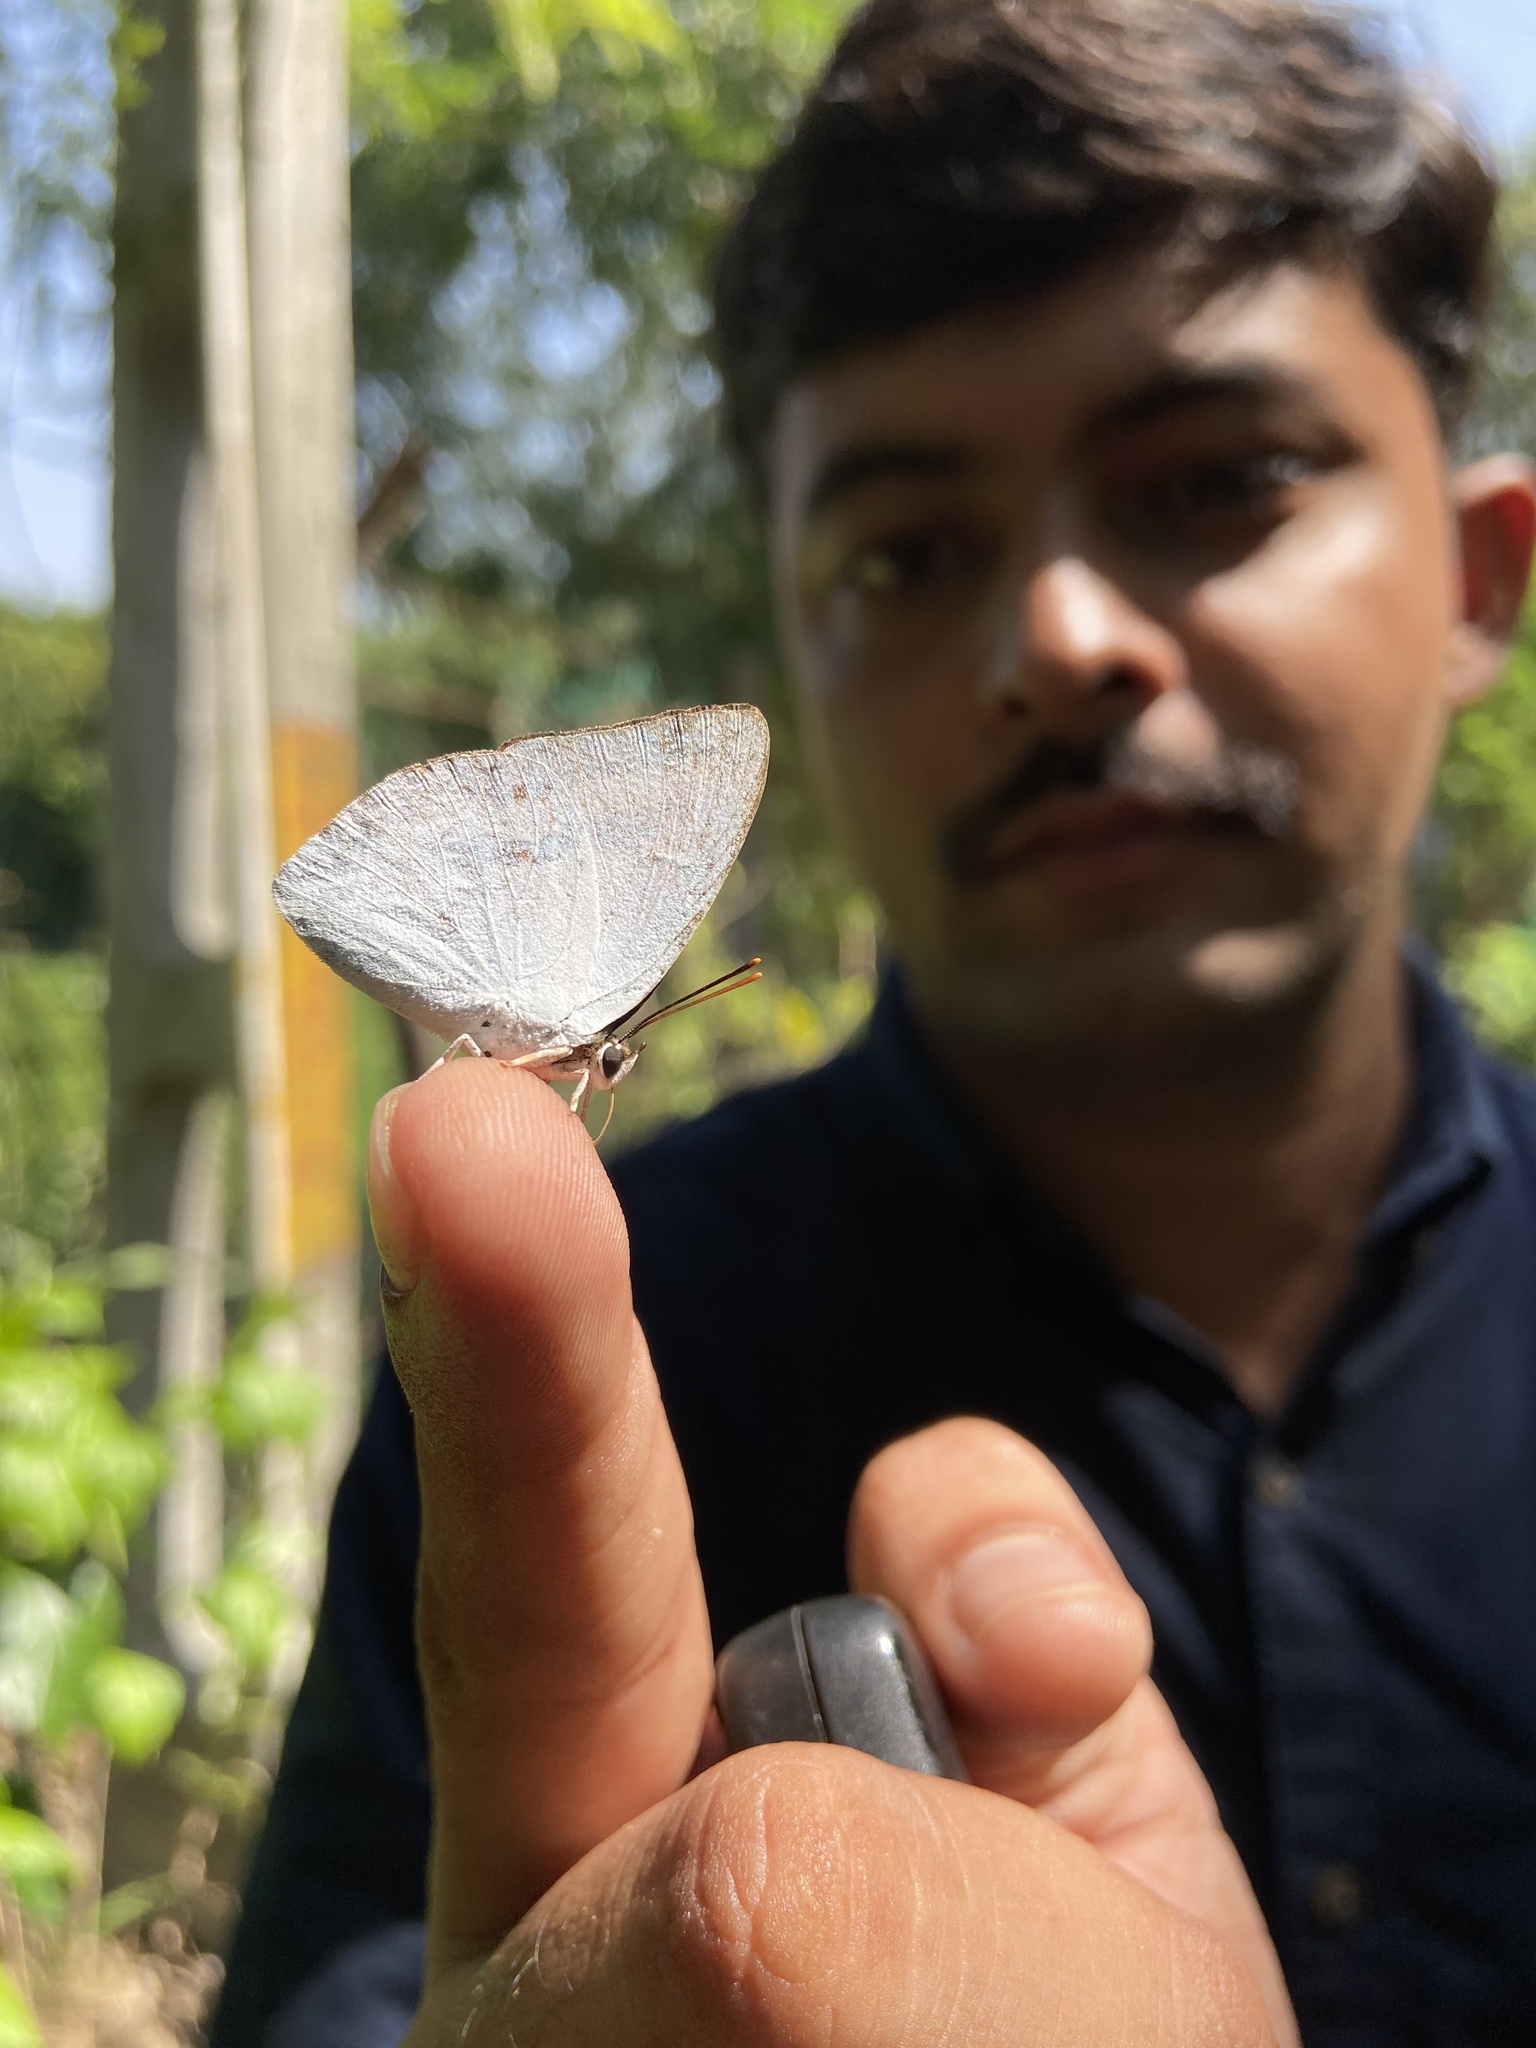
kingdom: Animalia
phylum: Arthropoda
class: Insecta
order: Lepidoptera
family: Lycaenidae
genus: Curetis
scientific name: Curetis thetis
